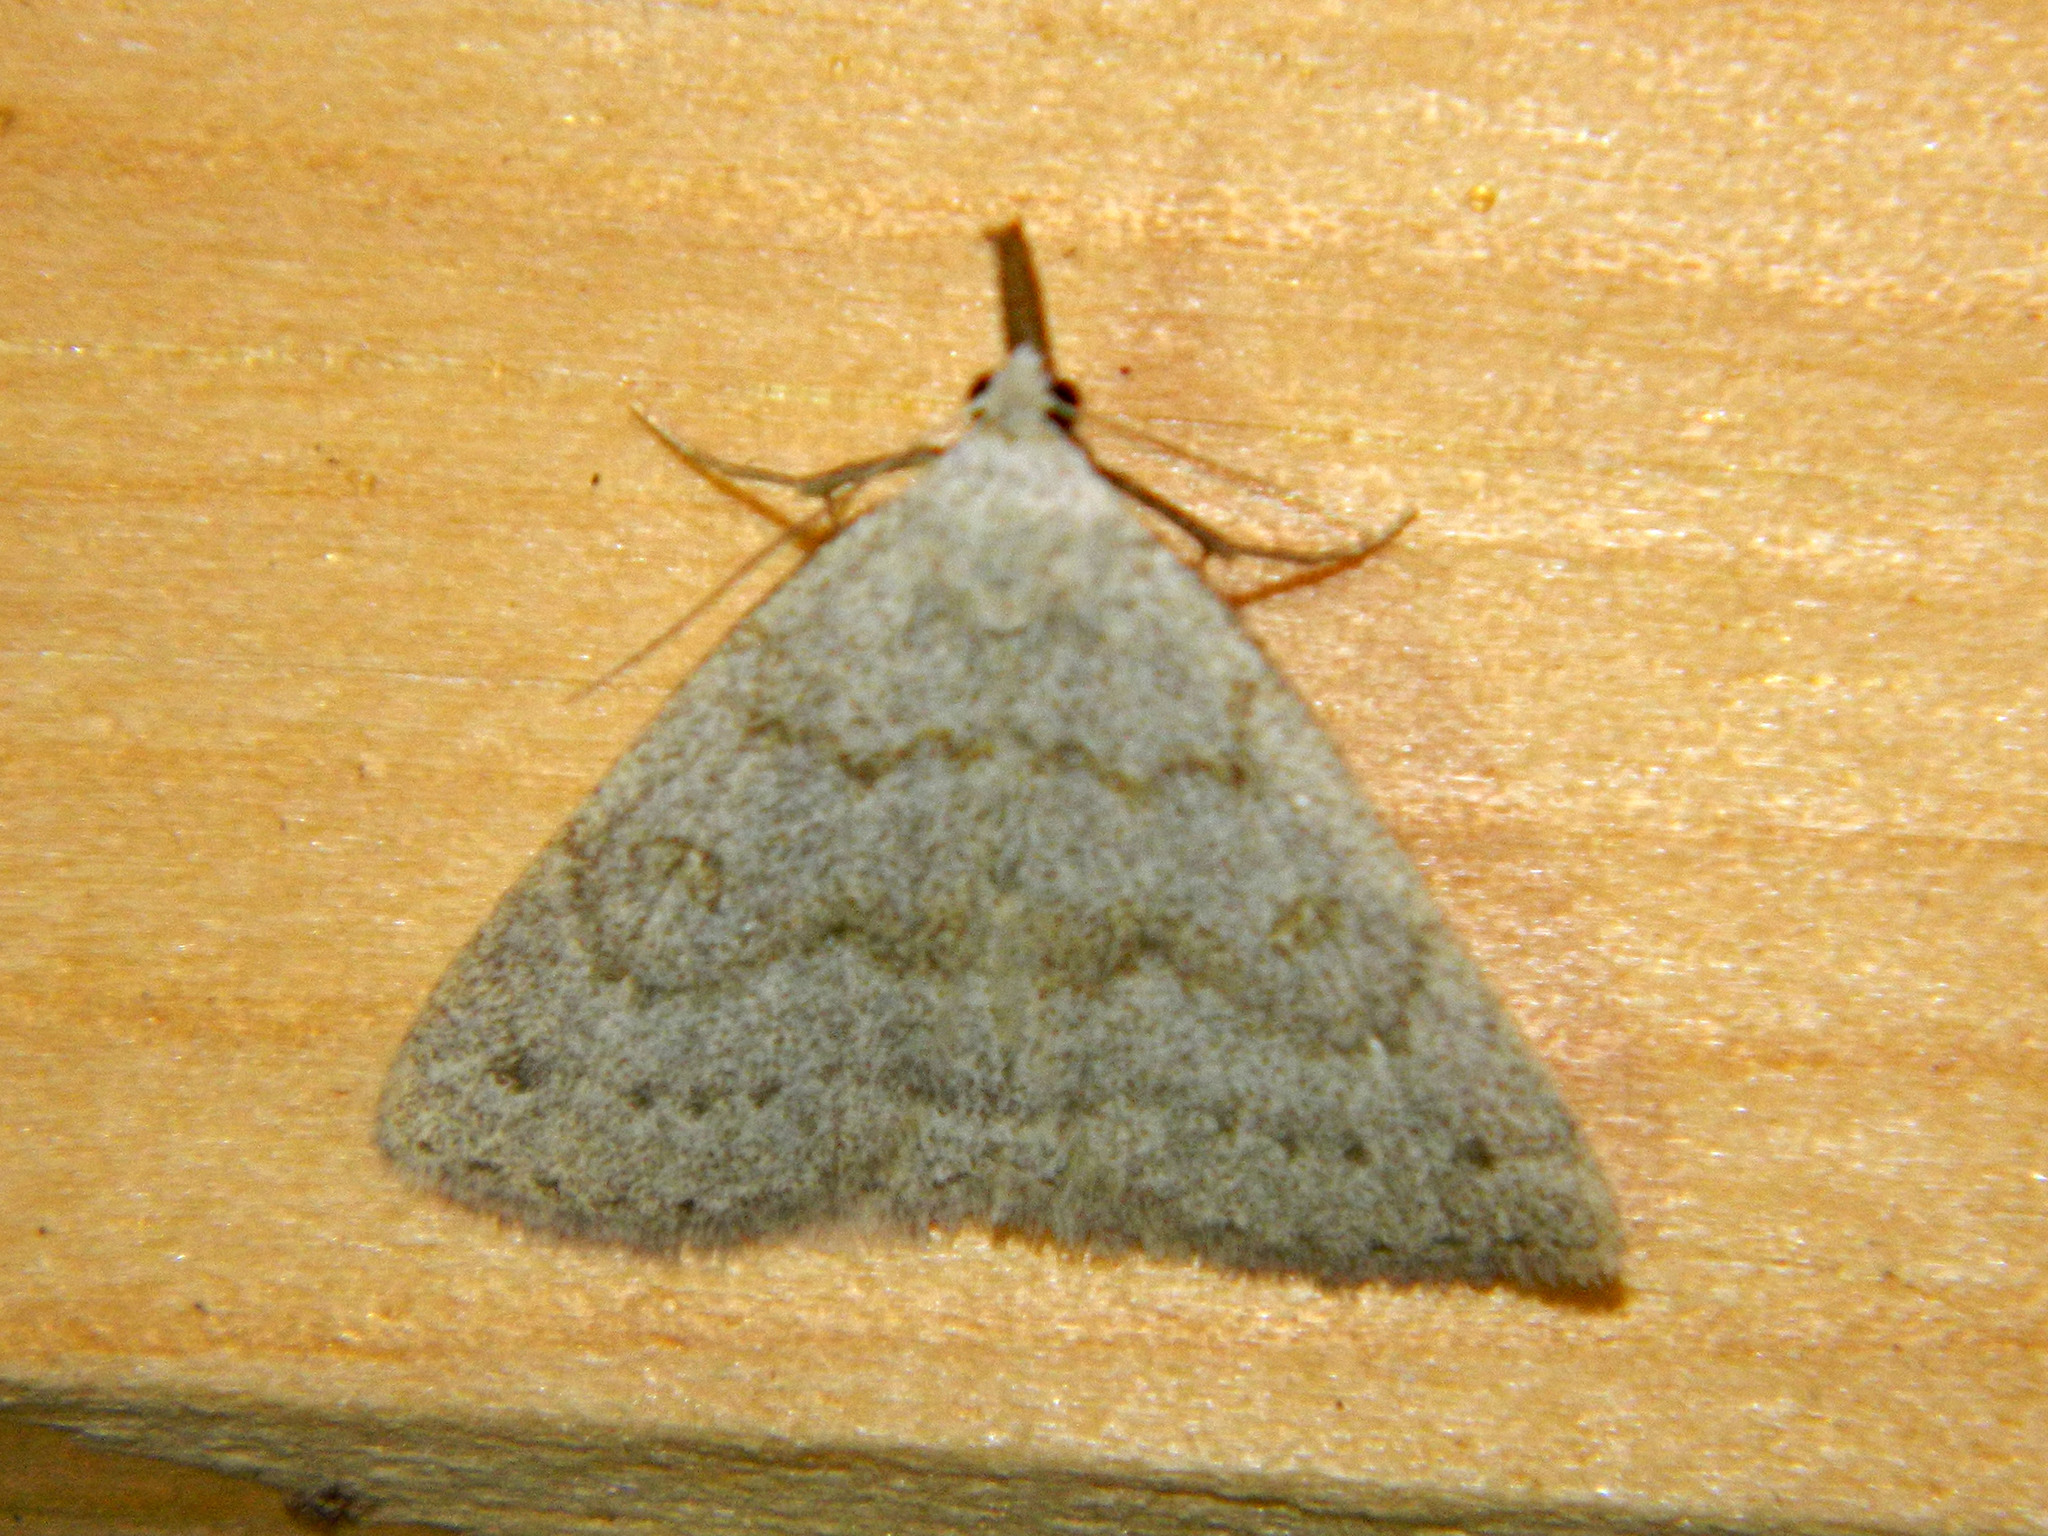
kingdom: Animalia
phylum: Arthropoda
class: Insecta
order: Lepidoptera
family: Erebidae
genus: Macrochilo
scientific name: Macrochilo morbidalis
